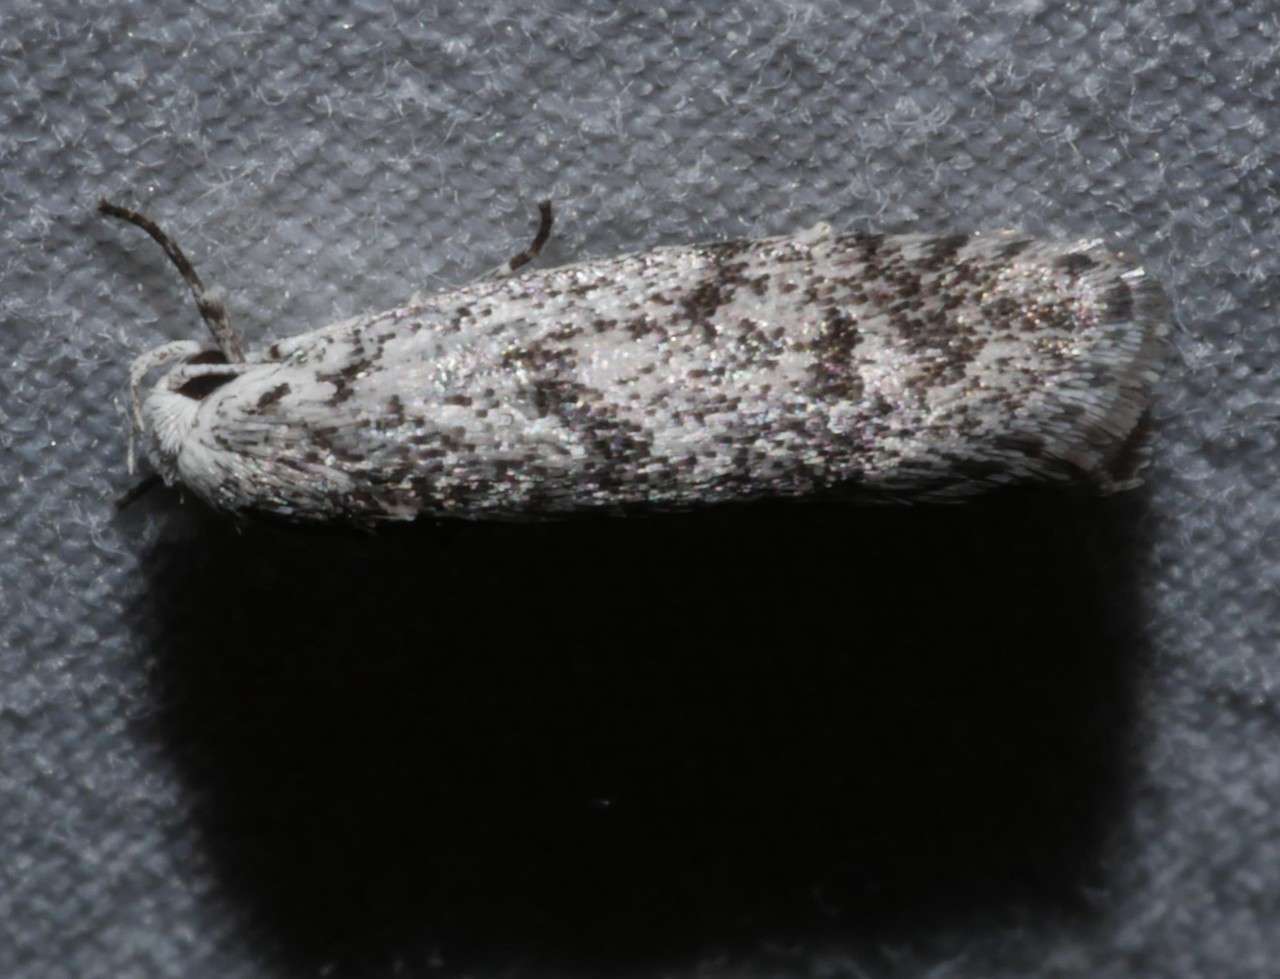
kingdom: Animalia
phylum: Arthropoda
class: Insecta
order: Lepidoptera
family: Xyloryctidae
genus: Lichenaula
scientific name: Lichenaula onychotypa
